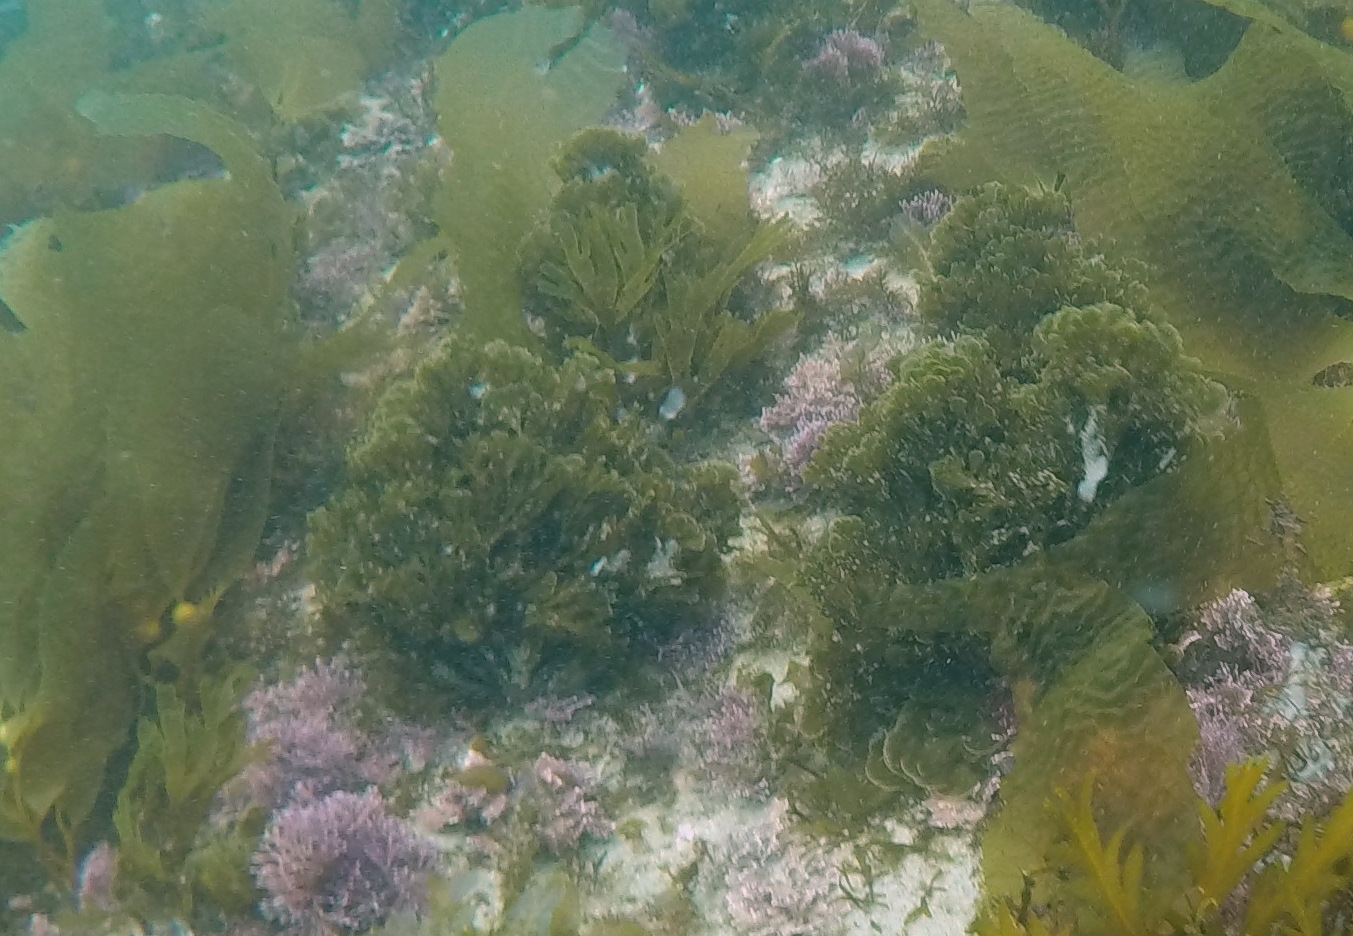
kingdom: Chromista
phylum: Ochrophyta
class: Phaeophyceae
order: Dictyotales
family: Dictyotaceae
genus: Zonaria
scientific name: Zonaria farlowii
